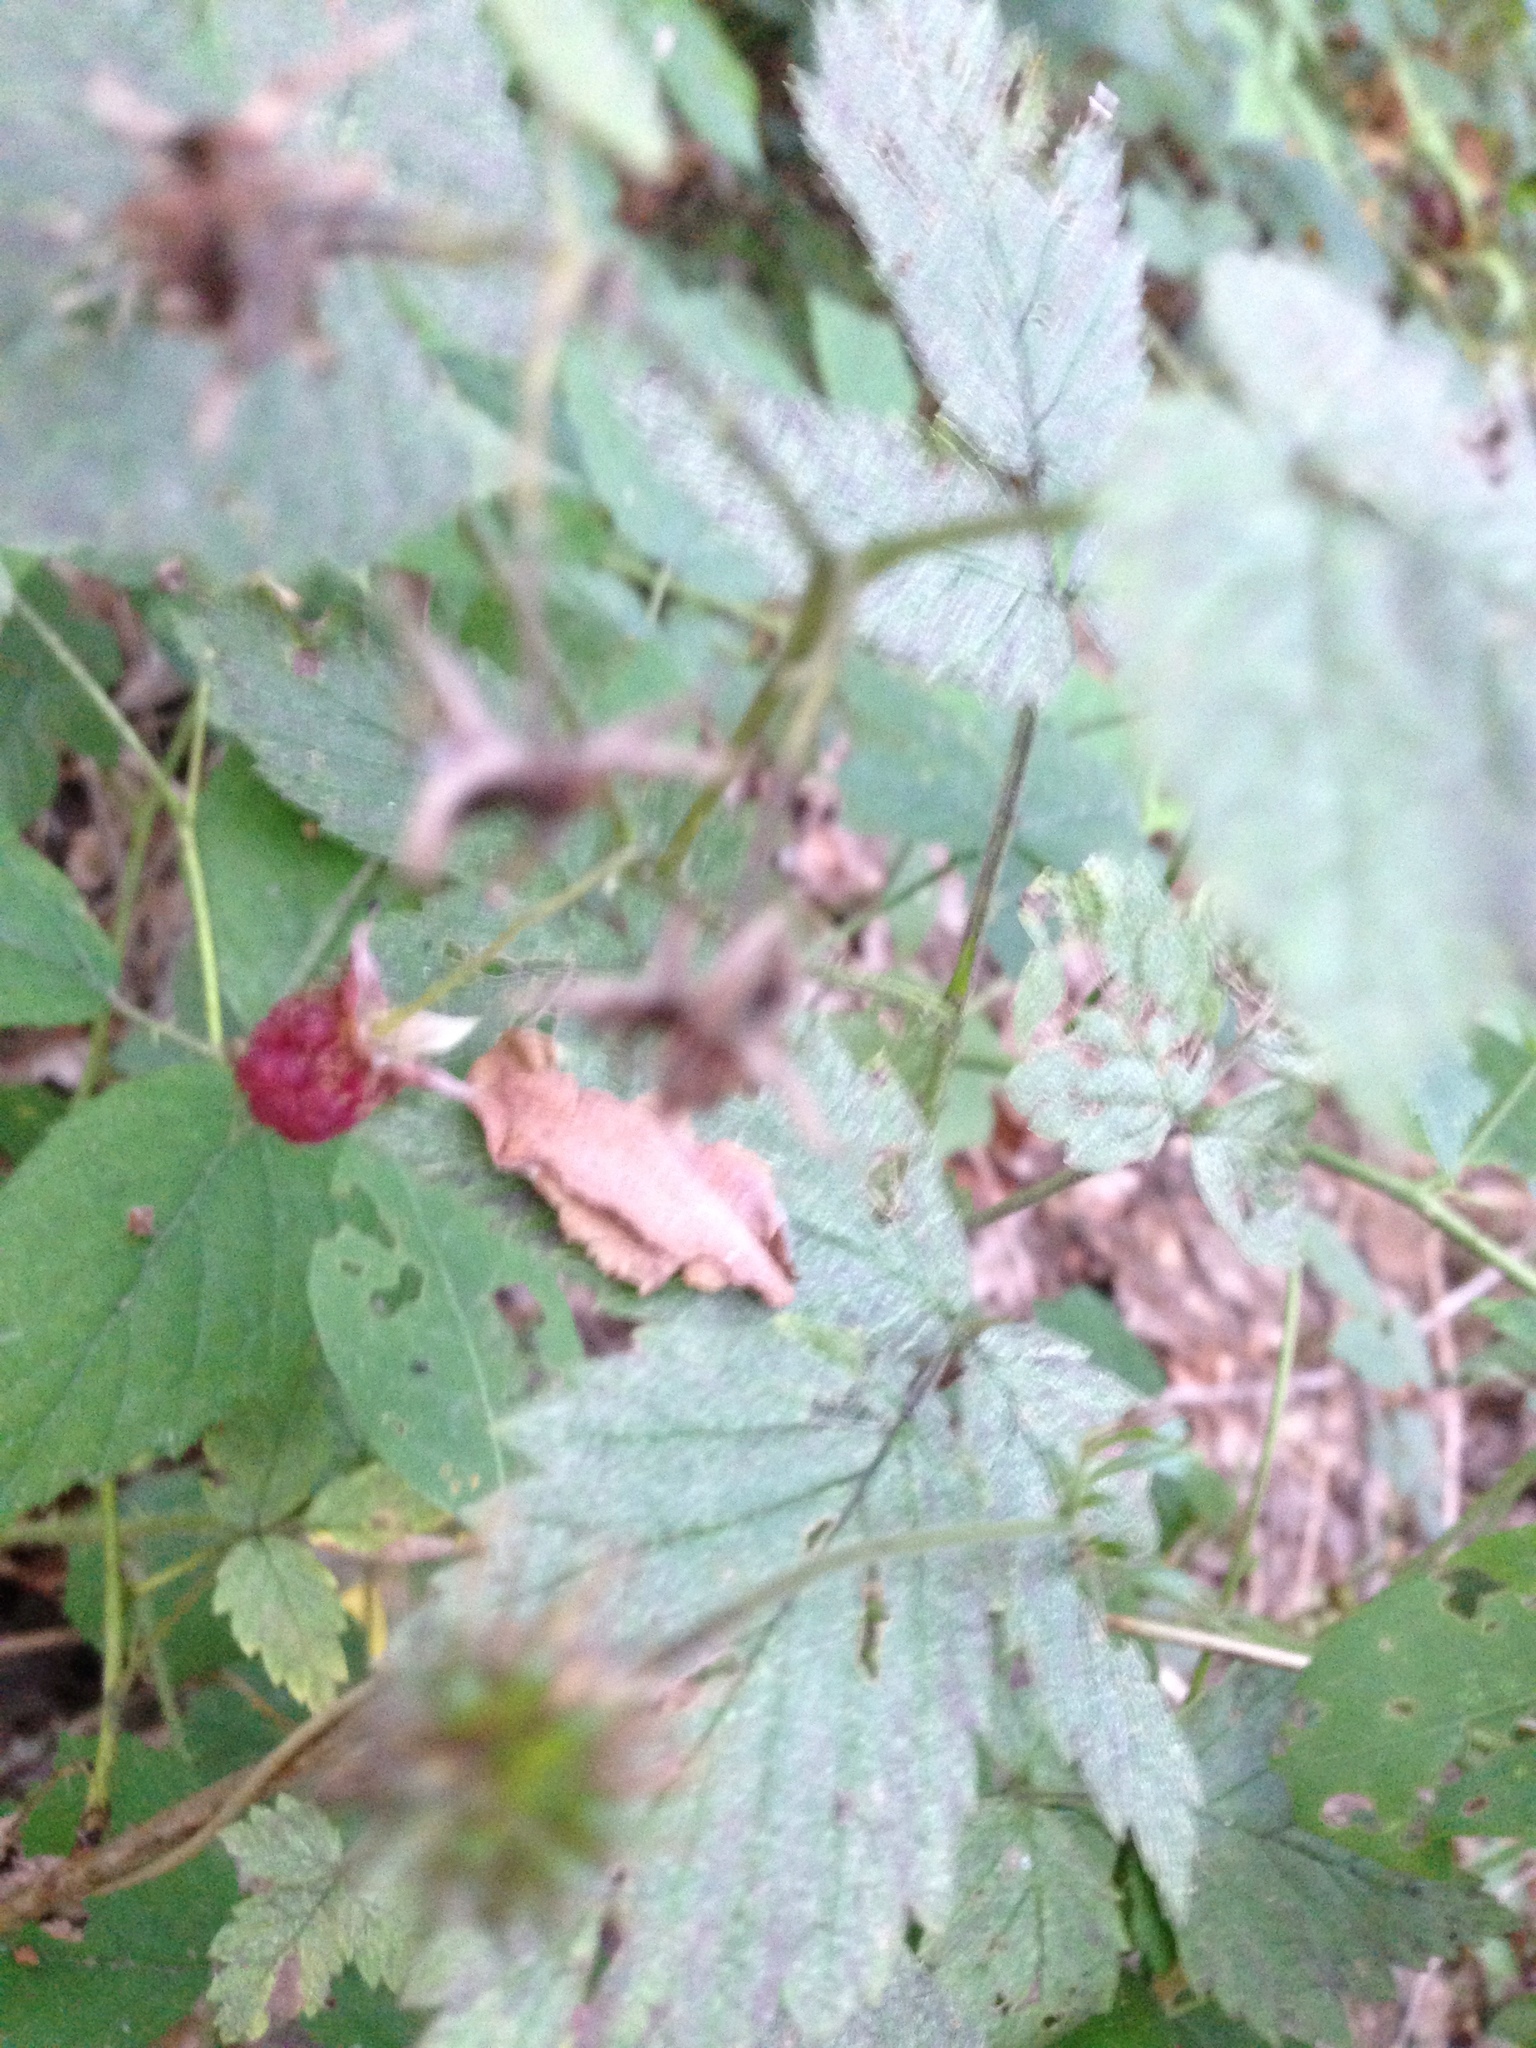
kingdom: Plantae
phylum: Tracheophyta
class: Magnoliopsida
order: Rosales
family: Rosaceae
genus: Rubus
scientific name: Rubus idaeus
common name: Raspberry
